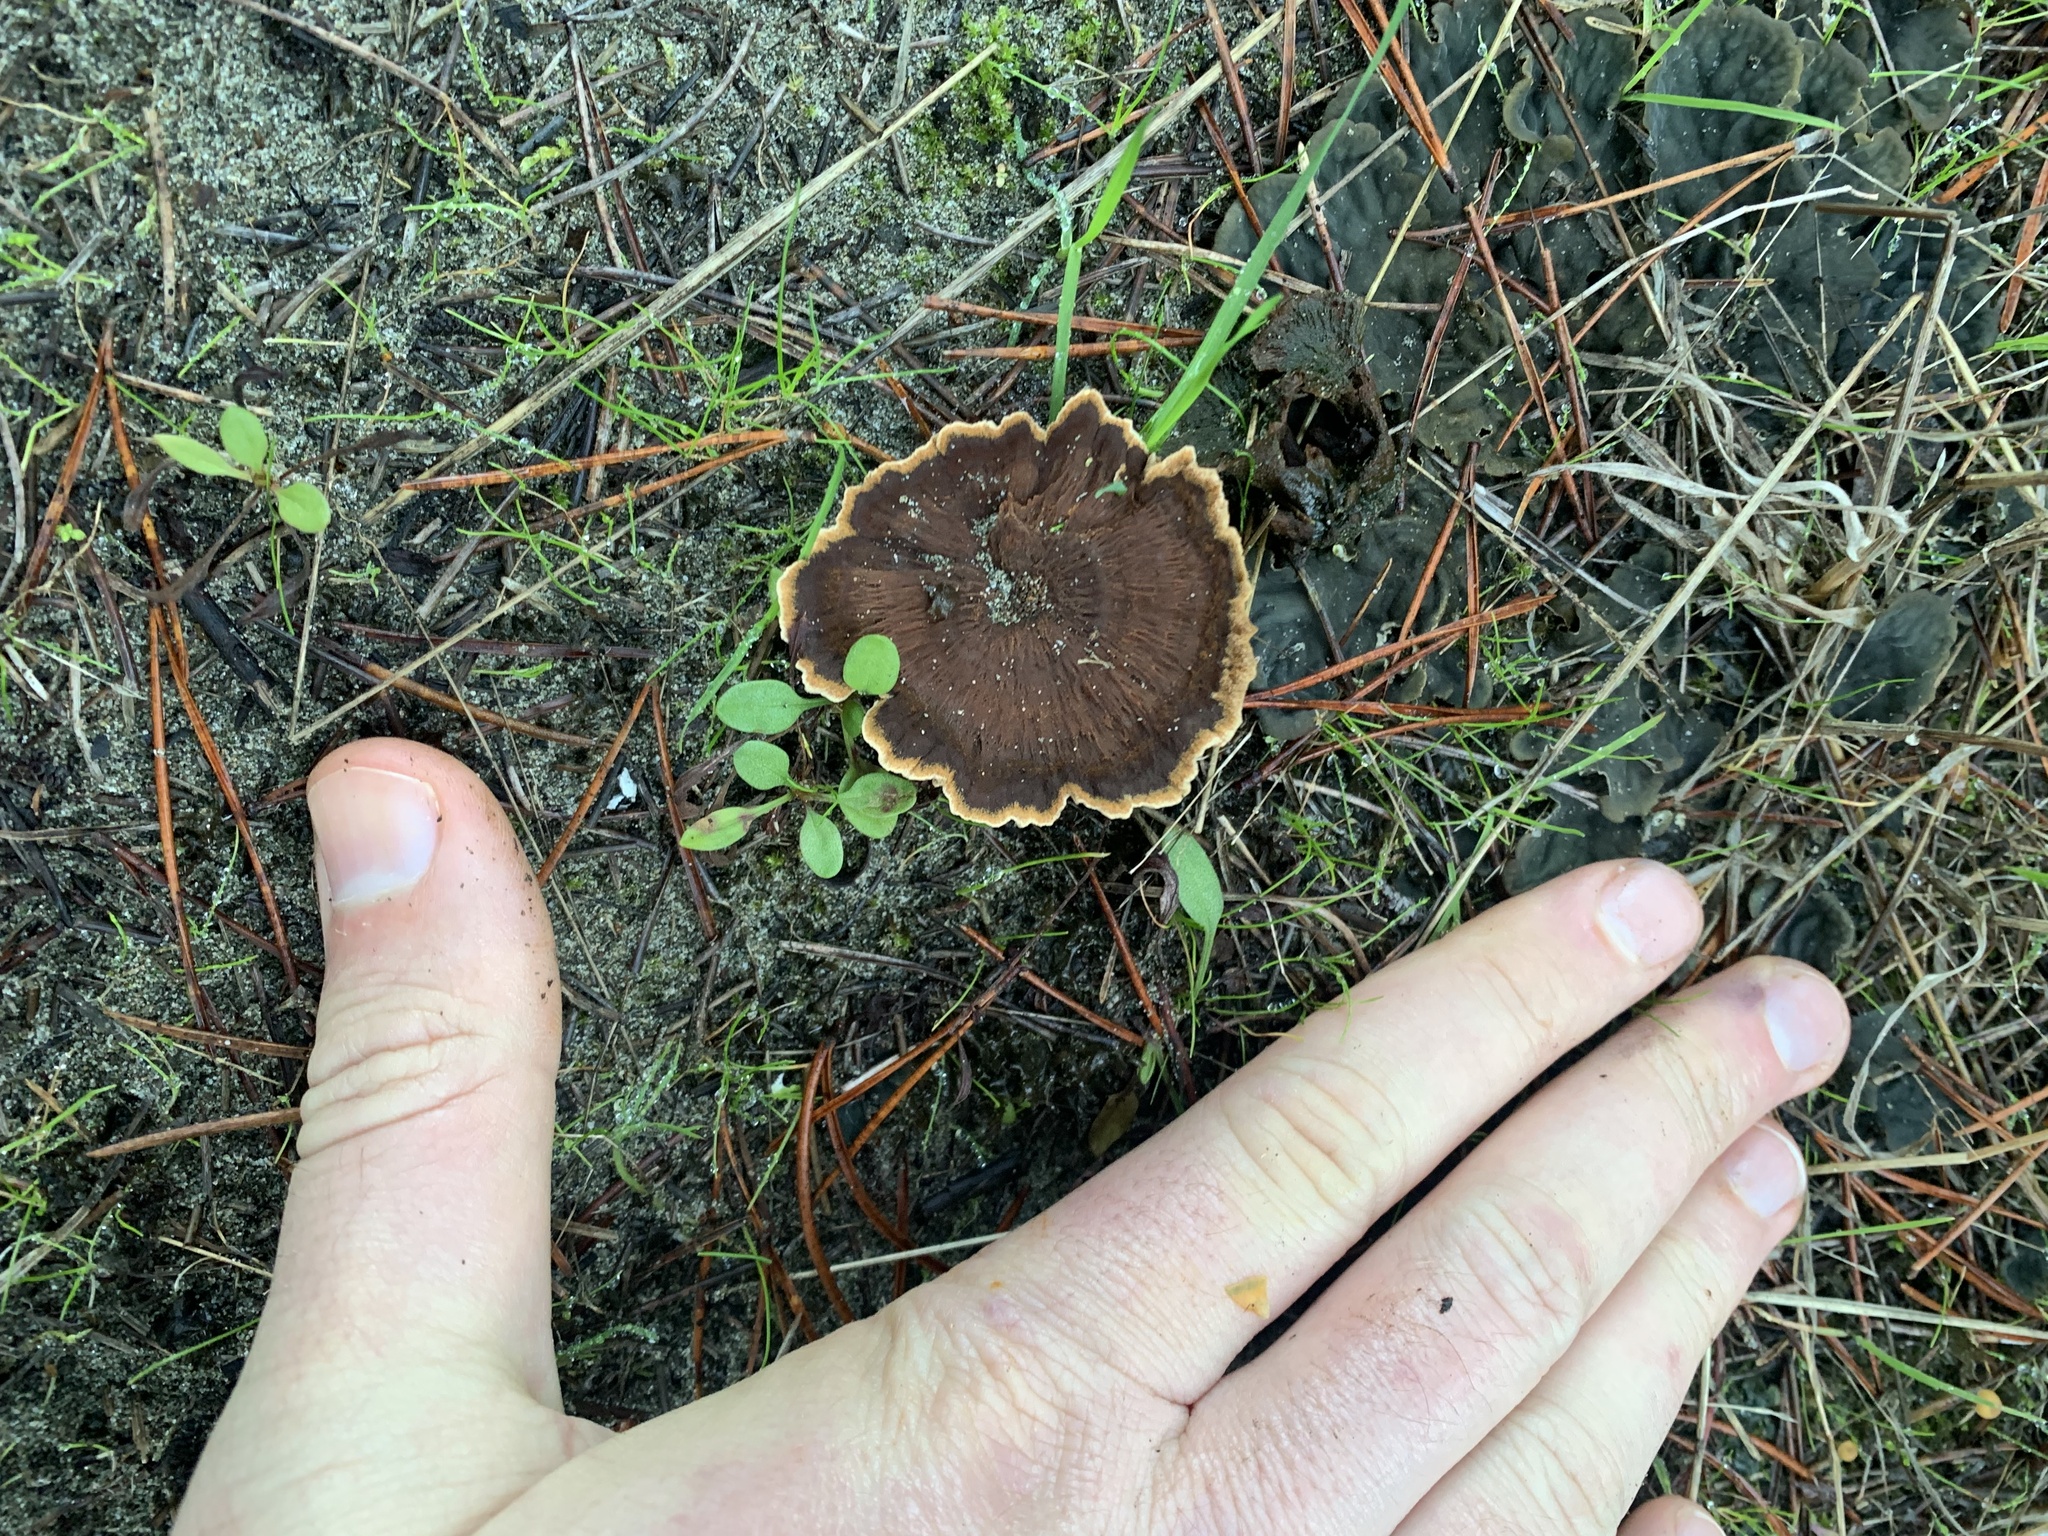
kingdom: Fungi
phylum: Basidiomycota
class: Agaricomycetes
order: Hymenochaetales
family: Hymenochaetaceae
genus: Coltricia
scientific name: Coltricia perennis
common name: Tiger's eye
